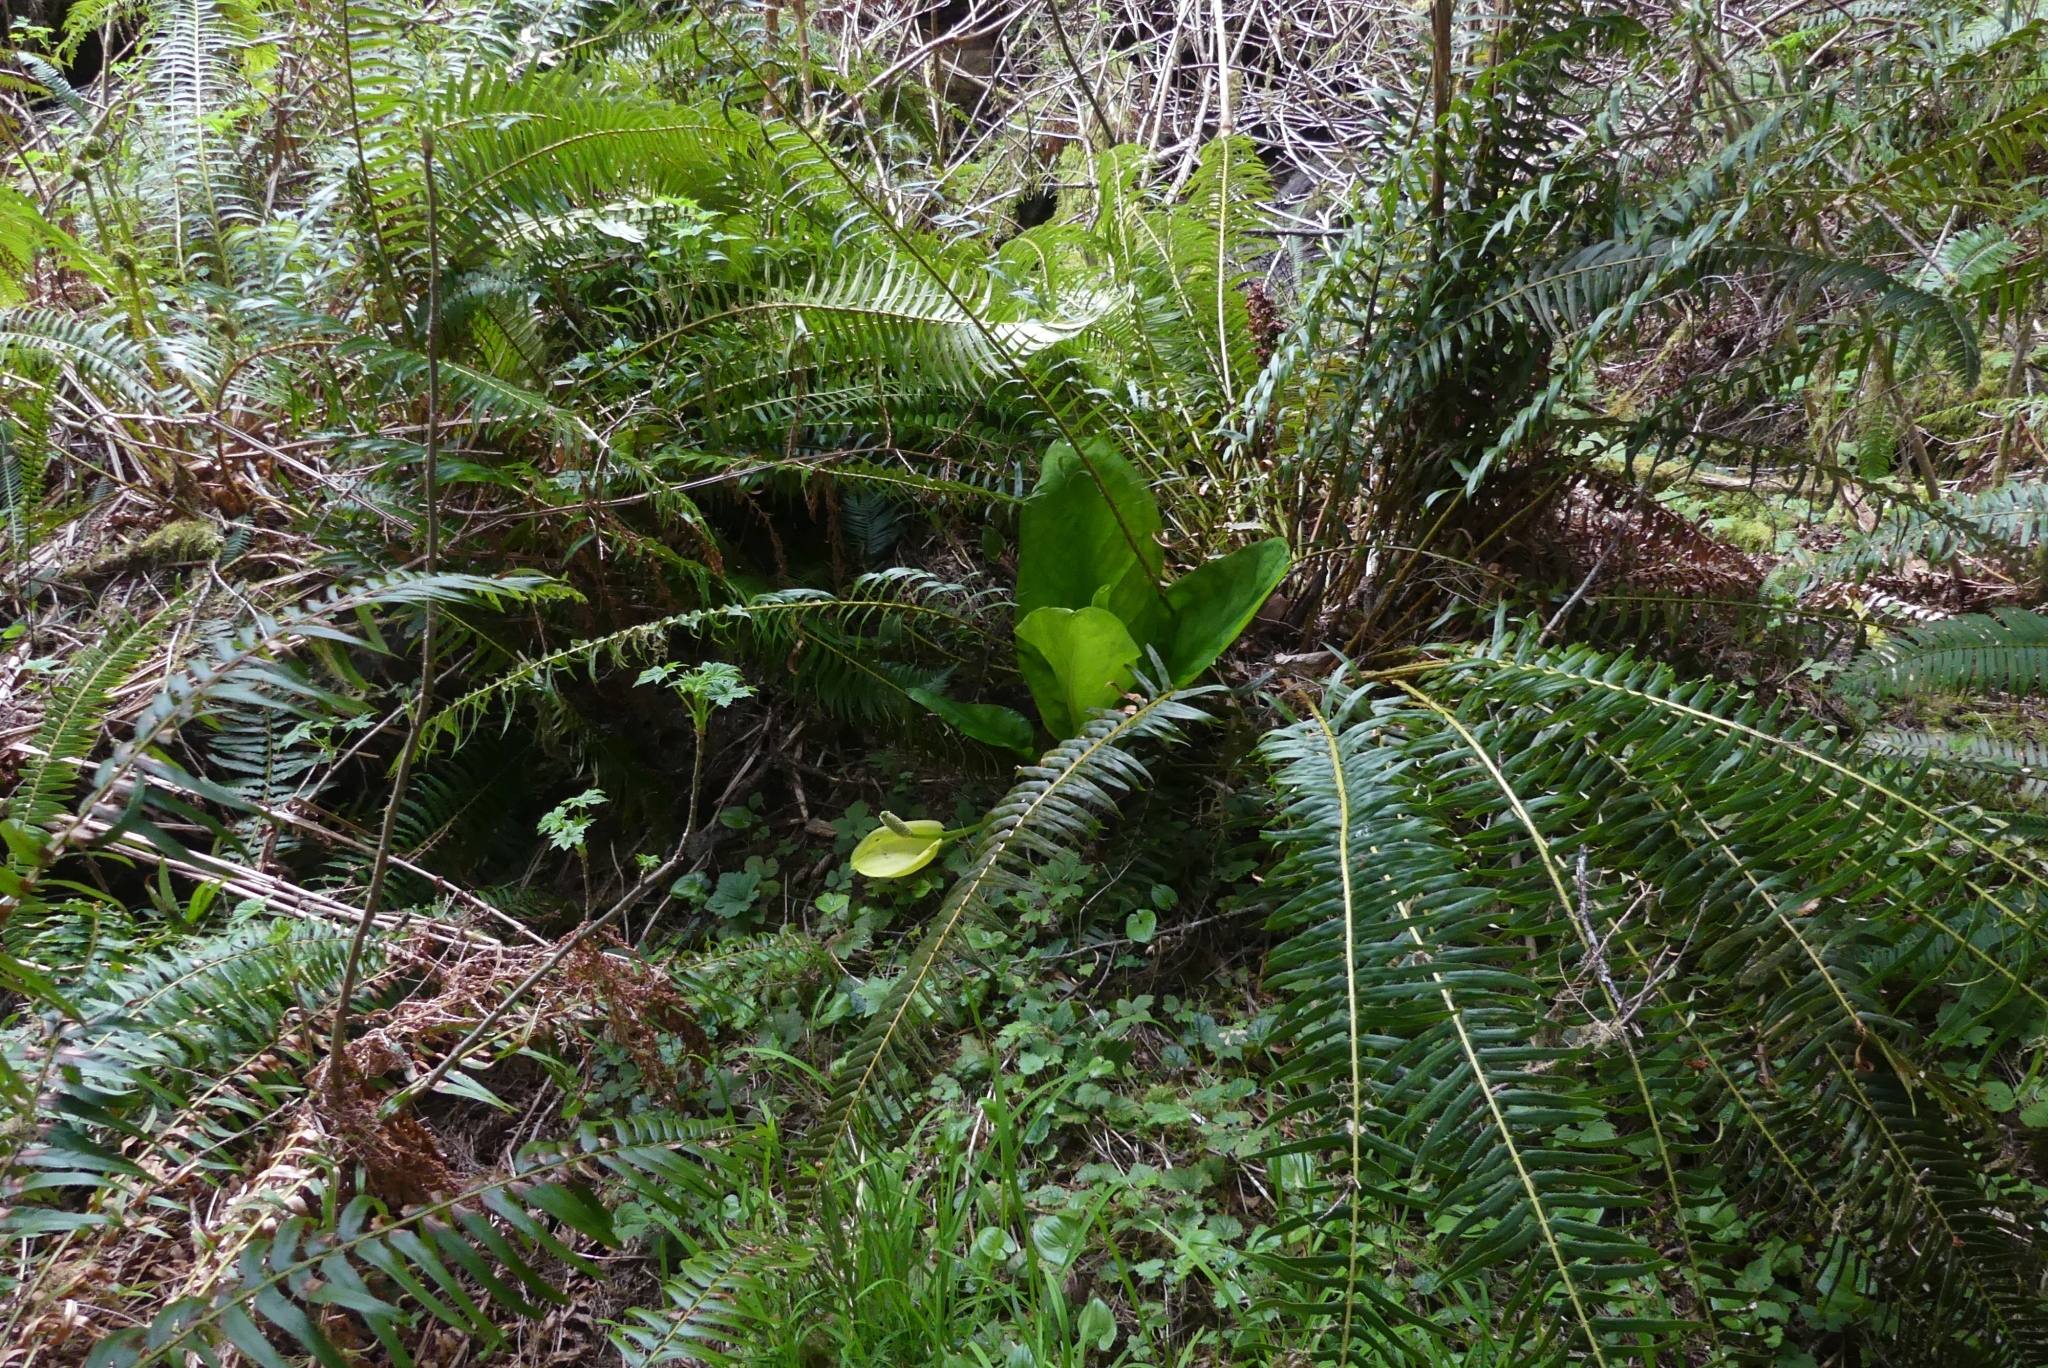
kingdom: Plantae
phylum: Tracheophyta
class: Liliopsida
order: Alismatales
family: Araceae
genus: Lysichiton
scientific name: Lysichiton americanus
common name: American skunk cabbage
